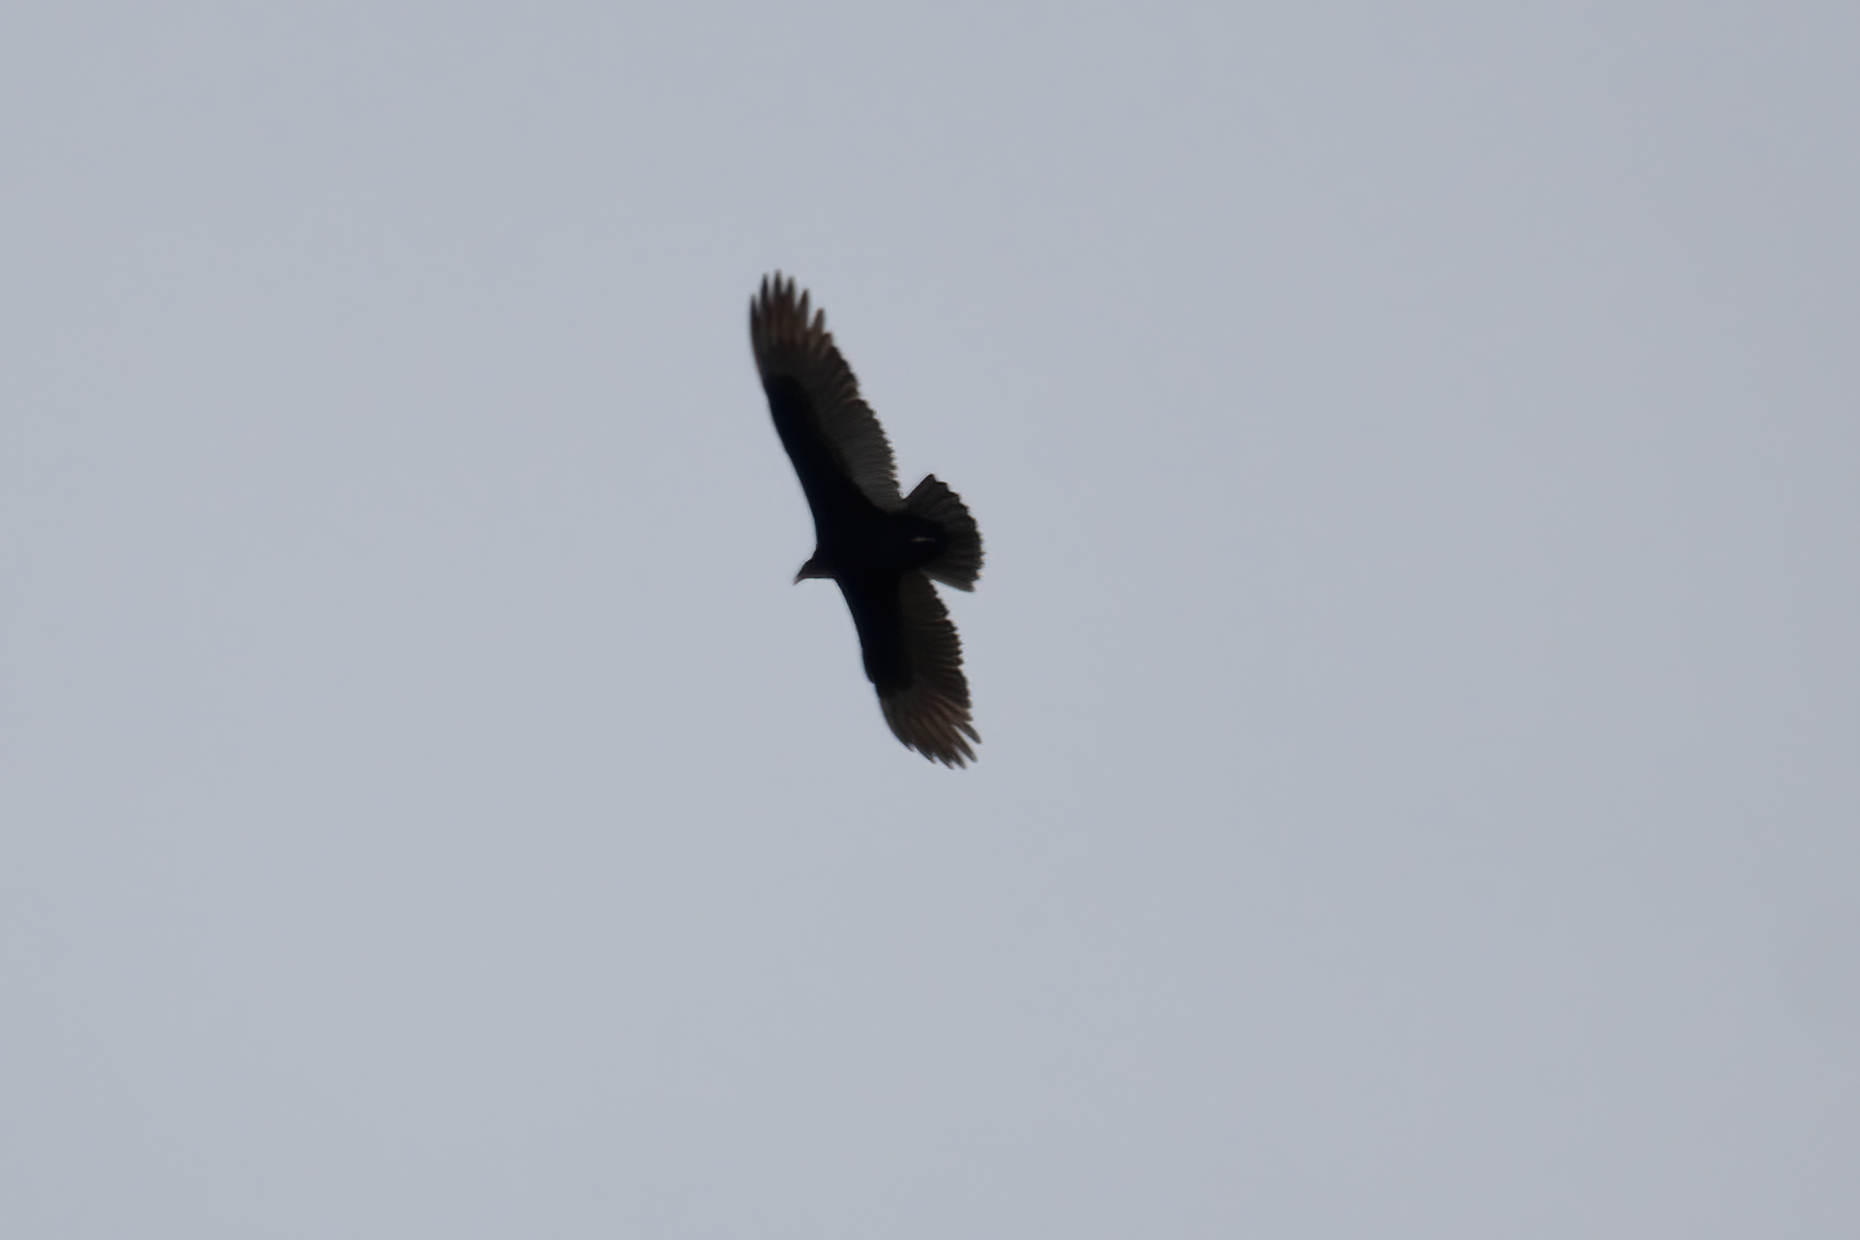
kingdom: Animalia
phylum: Chordata
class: Aves
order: Accipitriformes
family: Cathartidae
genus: Cathartes
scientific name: Cathartes aura
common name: Turkey vulture
